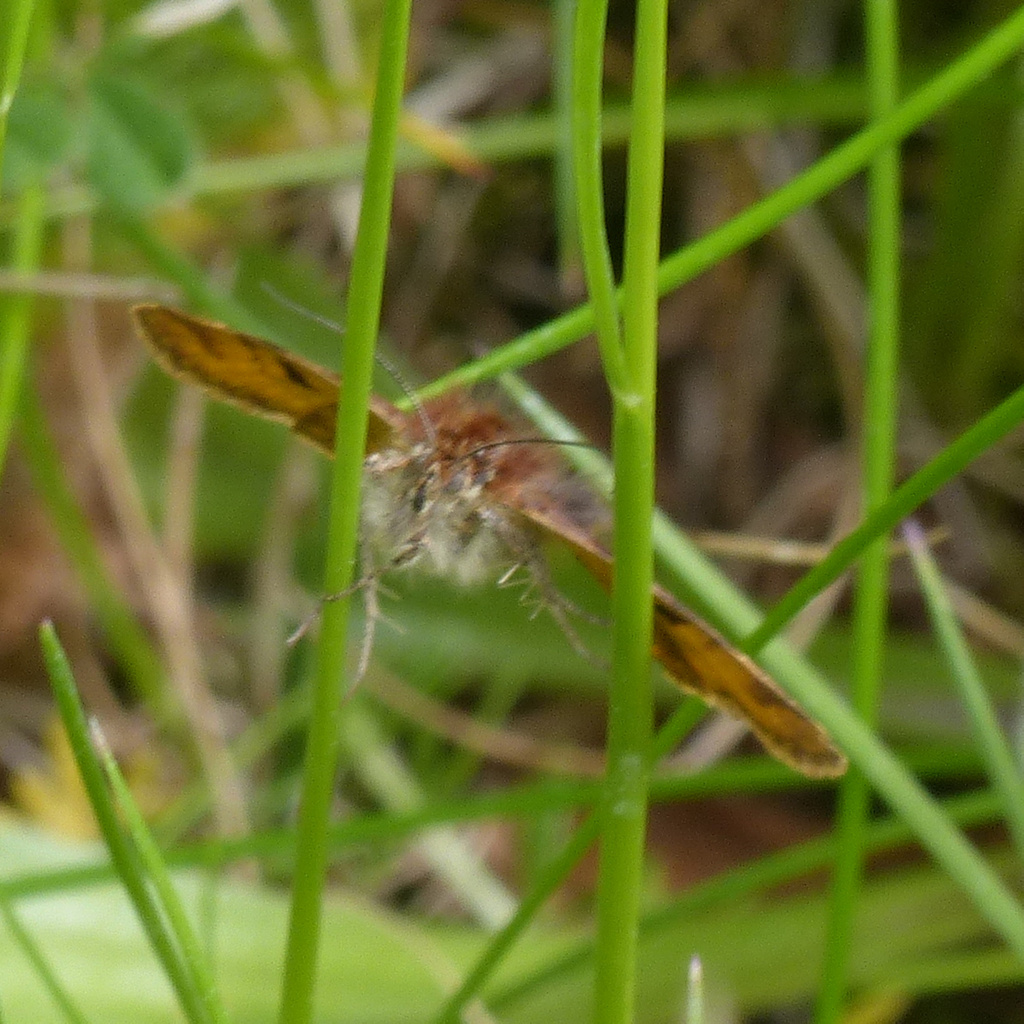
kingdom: Animalia
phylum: Arthropoda
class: Insecta
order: Lepidoptera
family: Erebidae
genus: Euclidia
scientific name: Euclidia glyphica
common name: Burnet companion
